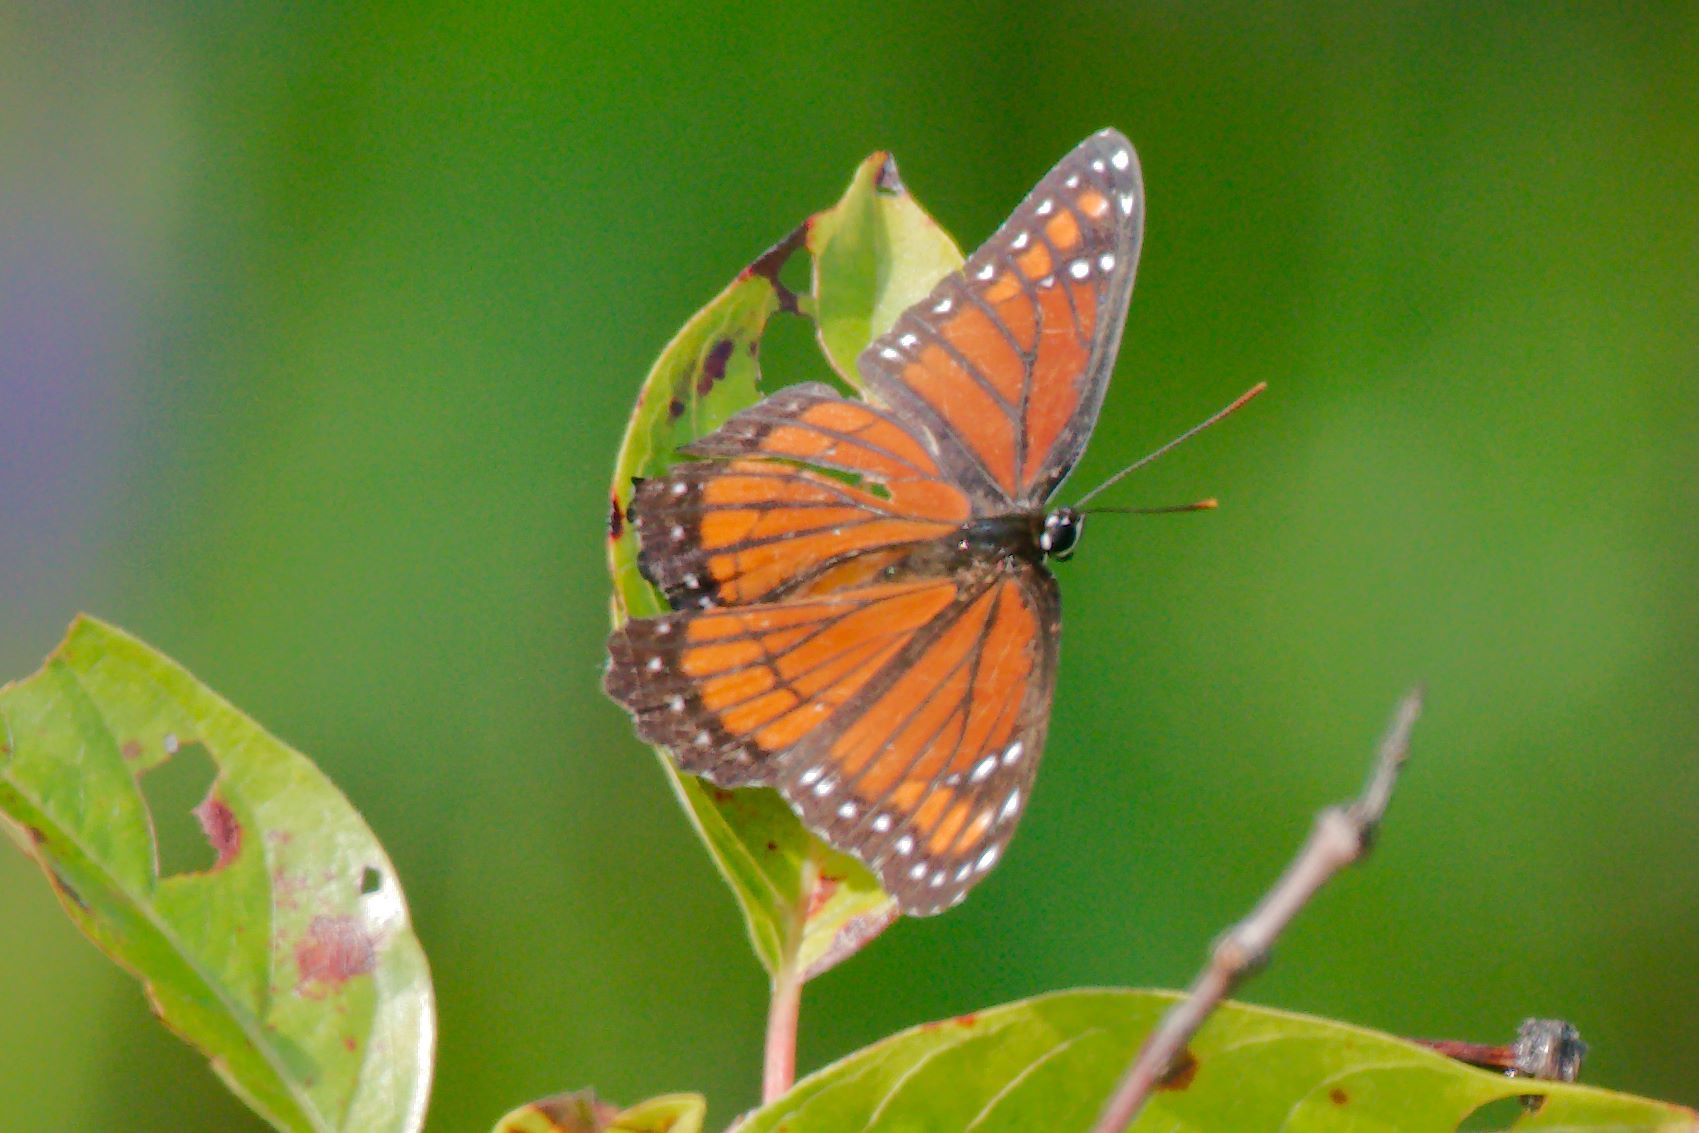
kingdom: Animalia
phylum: Arthropoda
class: Insecta
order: Lepidoptera
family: Nymphalidae
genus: Limenitis
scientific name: Limenitis archippus
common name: Viceroy
